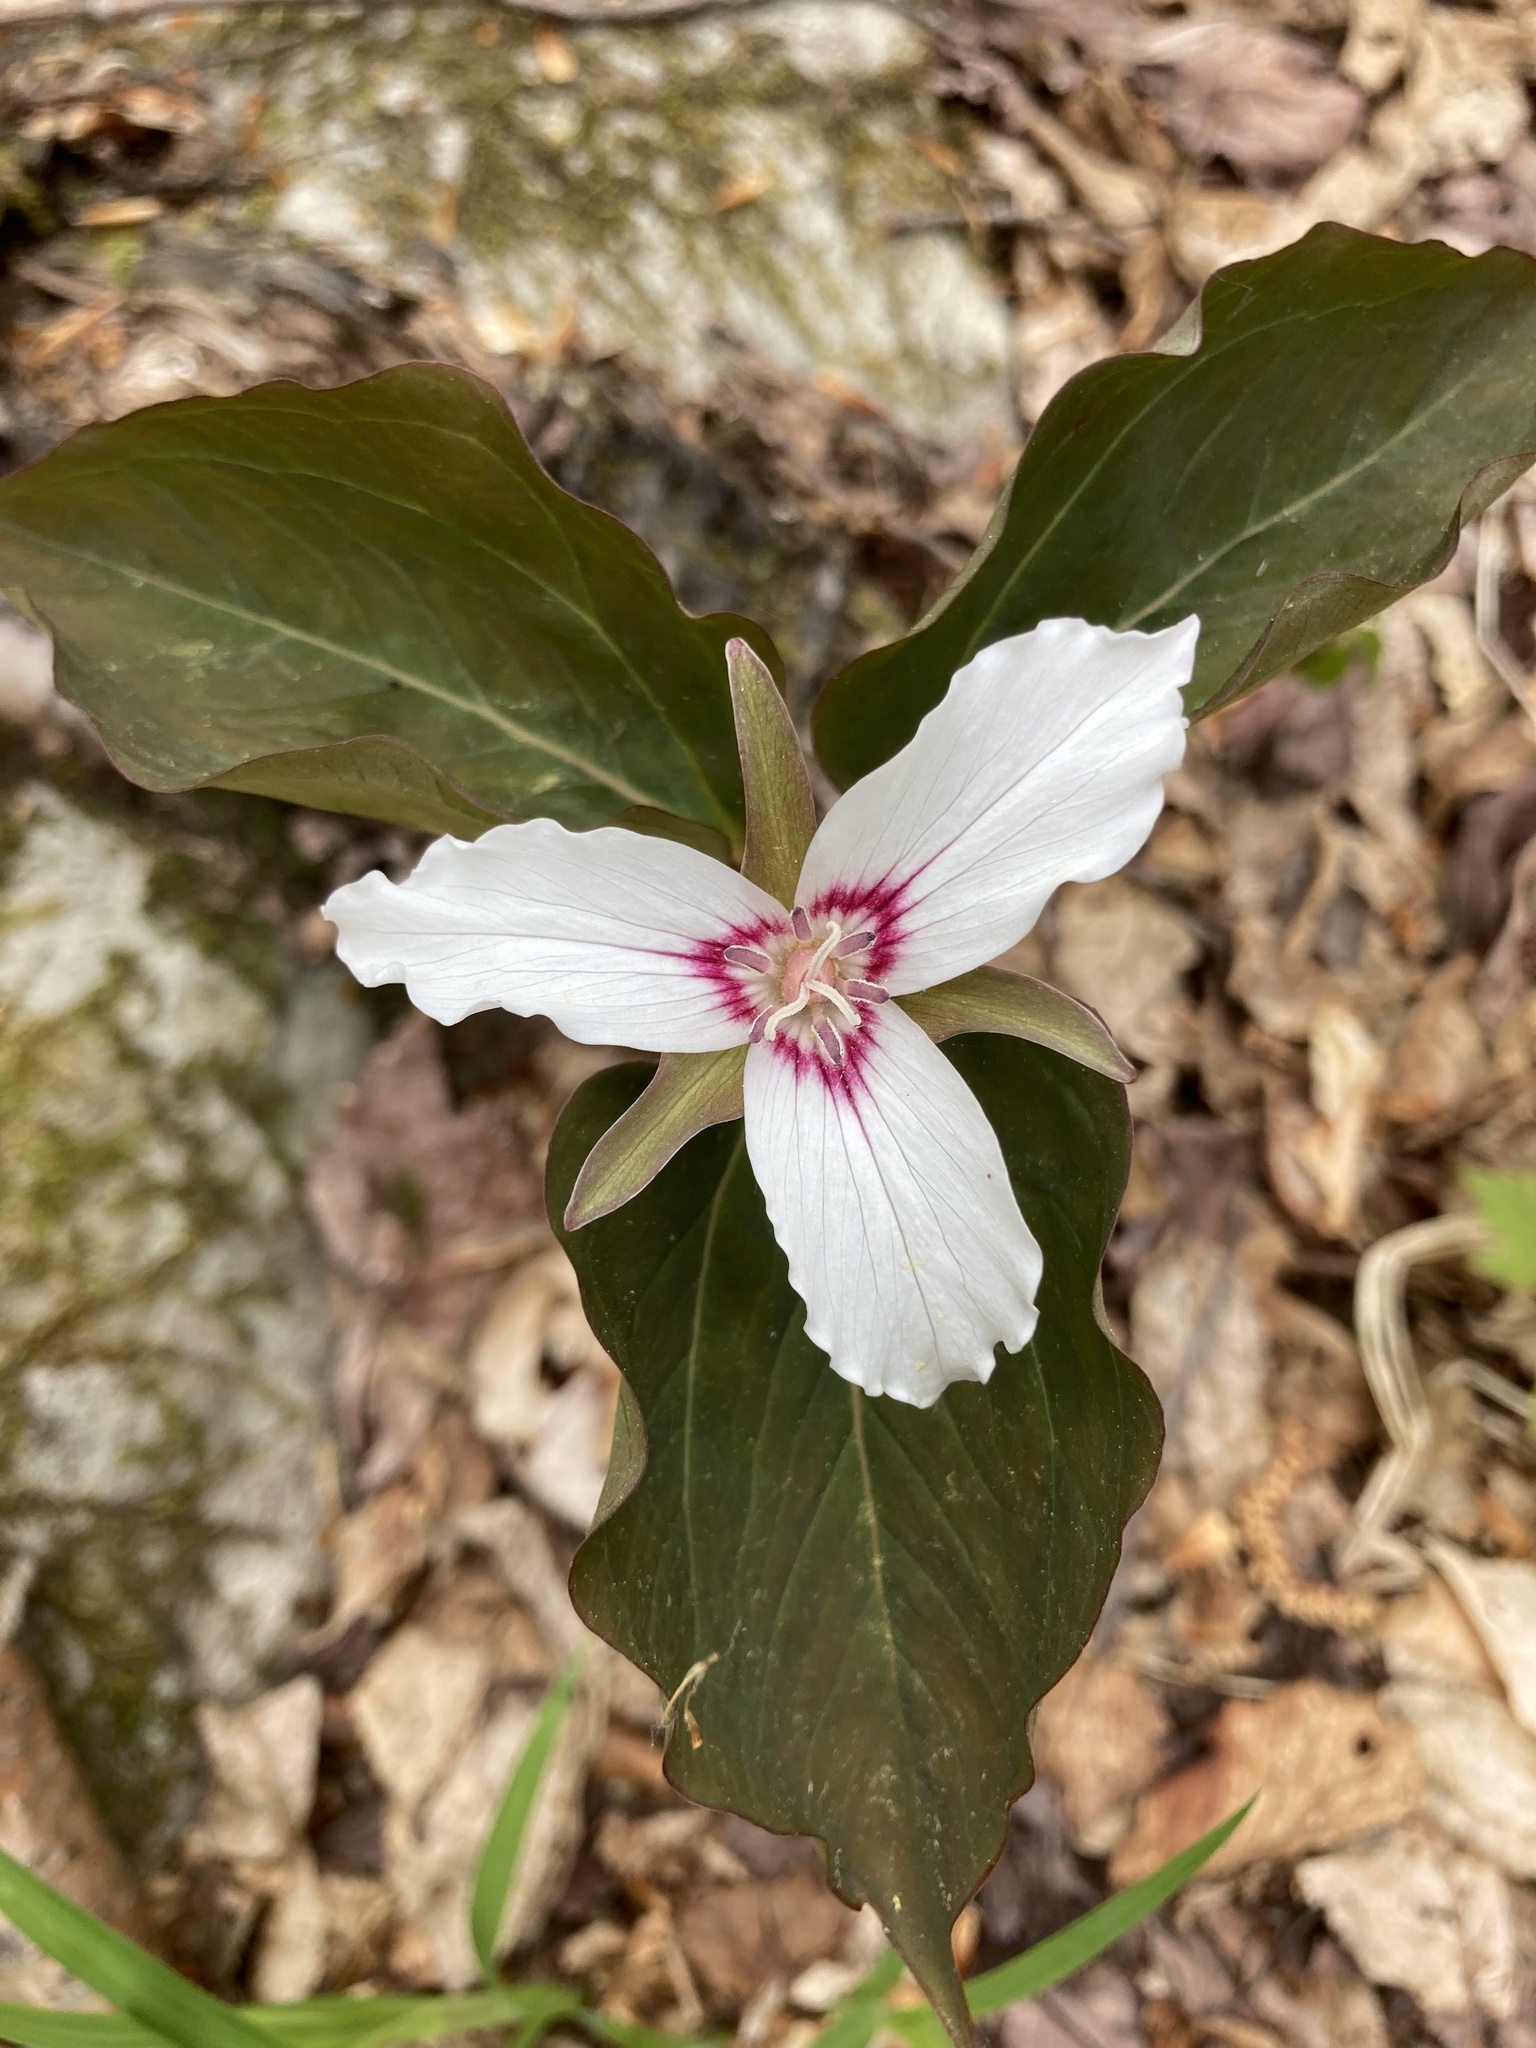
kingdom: Plantae
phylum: Tracheophyta
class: Liliopsida
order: Liliales
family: Melanthiaceae
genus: Trillium
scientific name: Trillium undulatum
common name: Paint trillium
